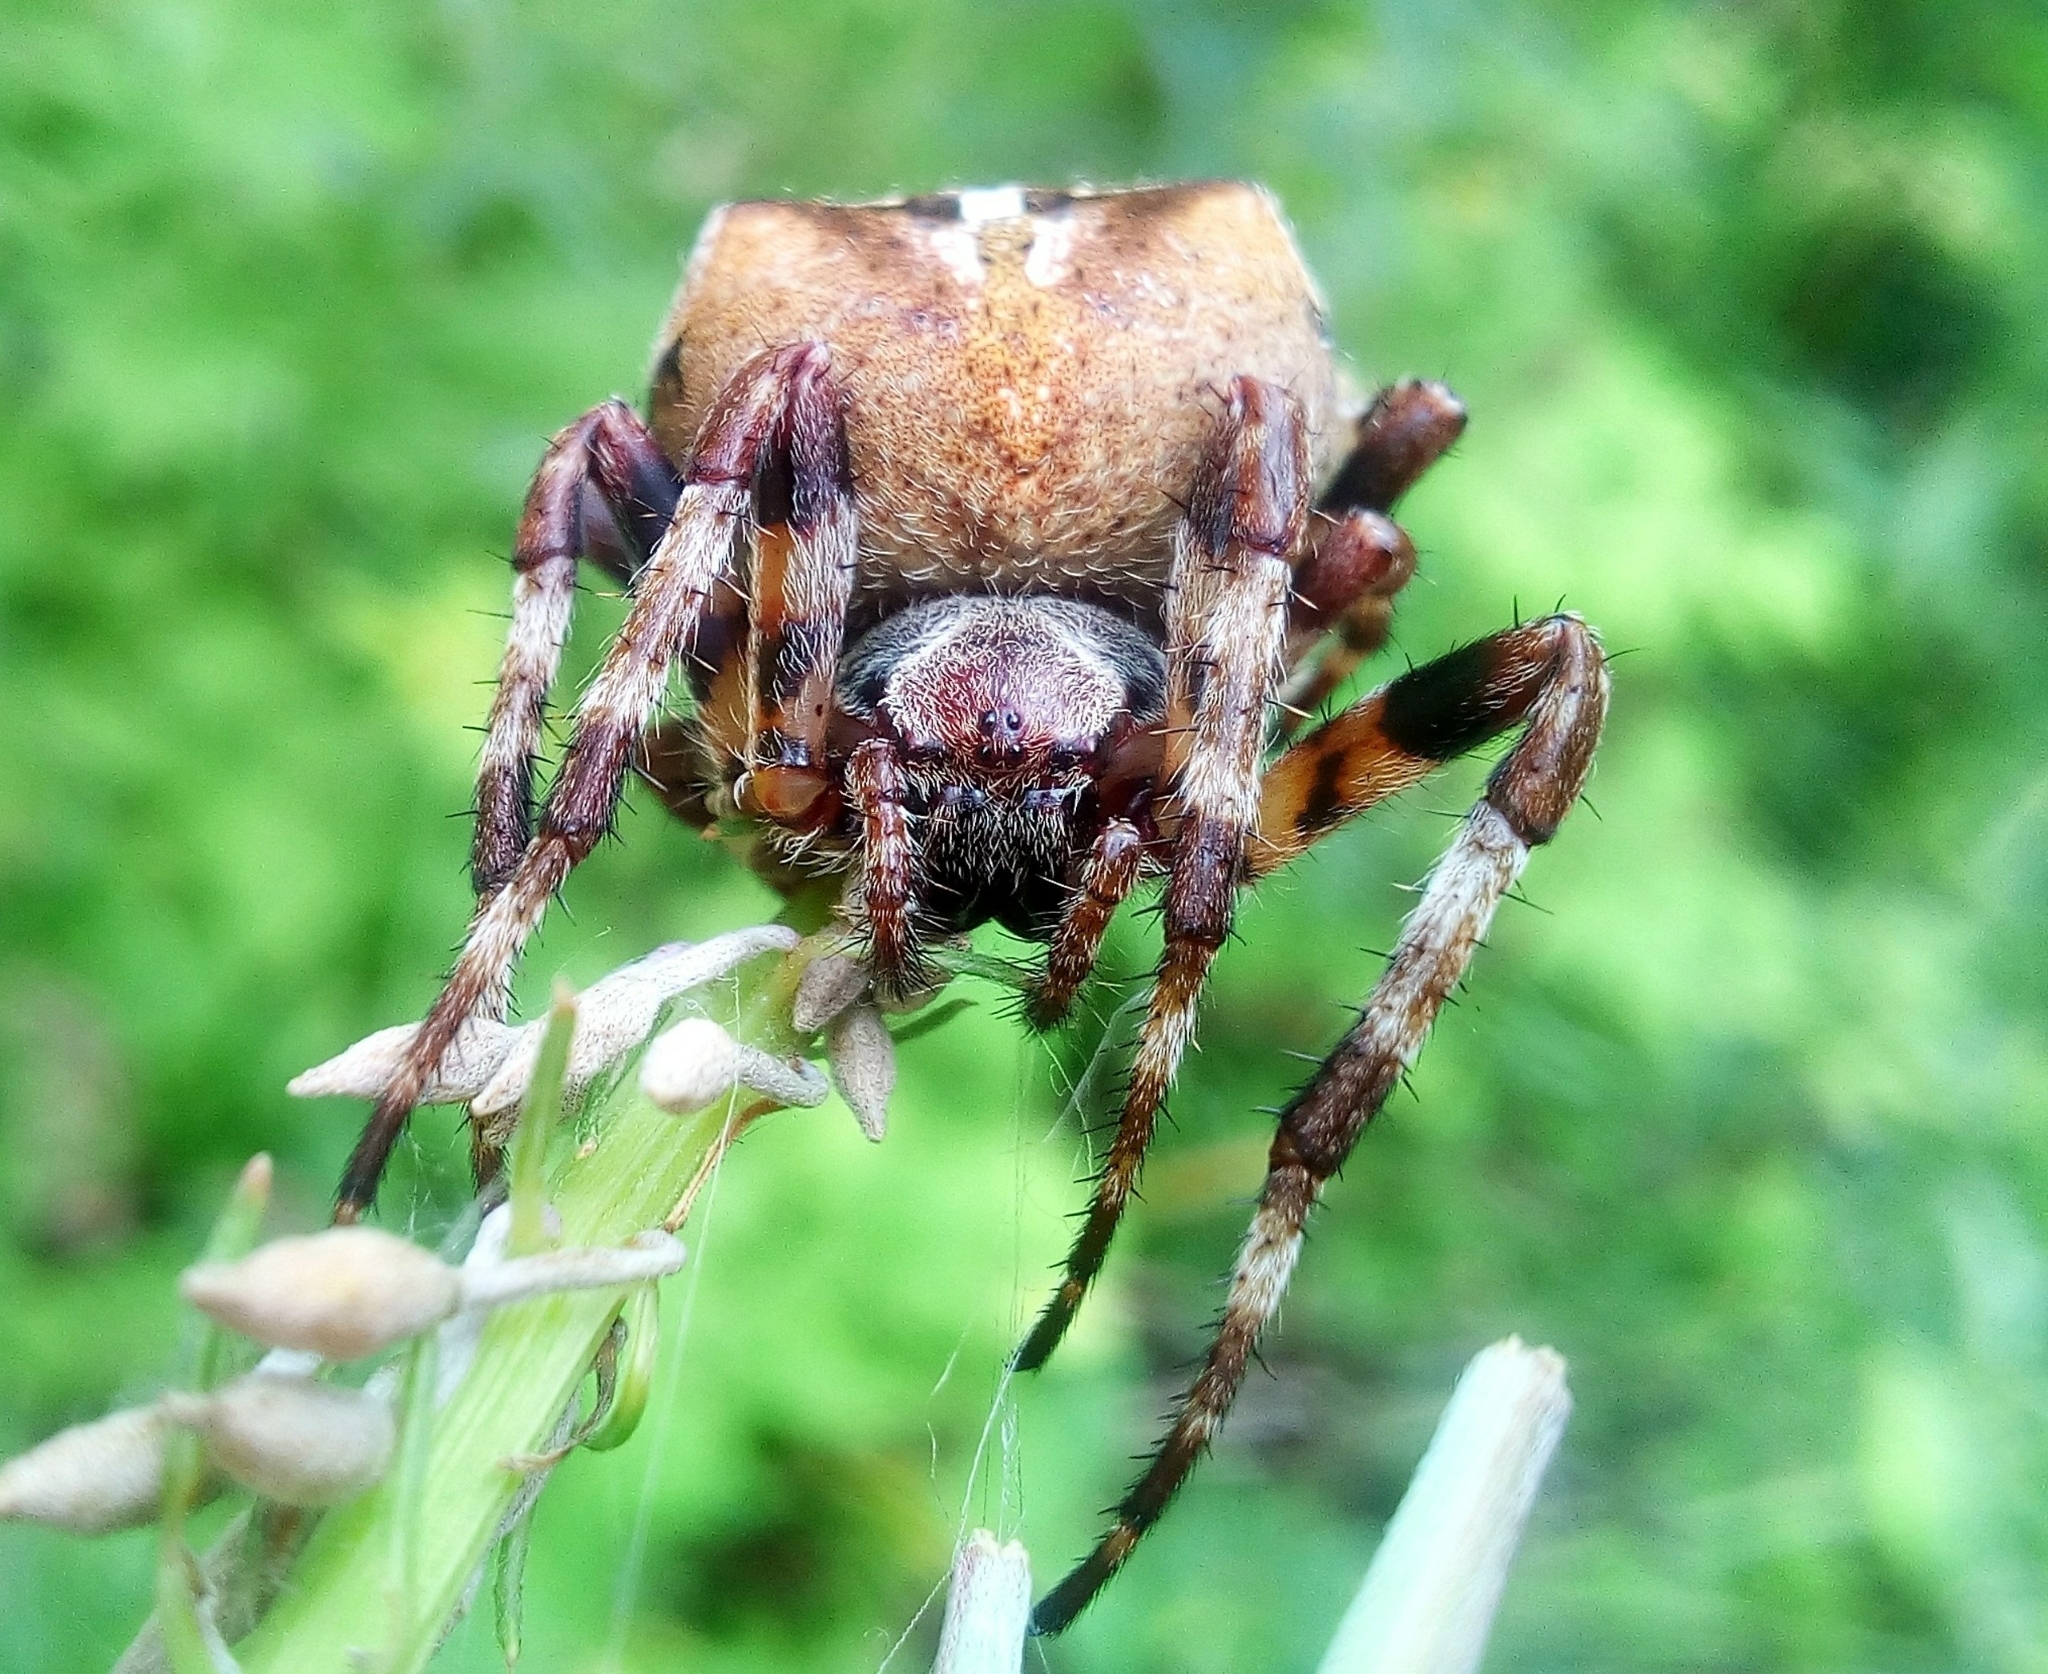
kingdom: Animalia
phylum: Arthropoda
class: Arachnida
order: Araneae
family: Araneidae
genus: Araneus
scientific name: Araneus angulatus
